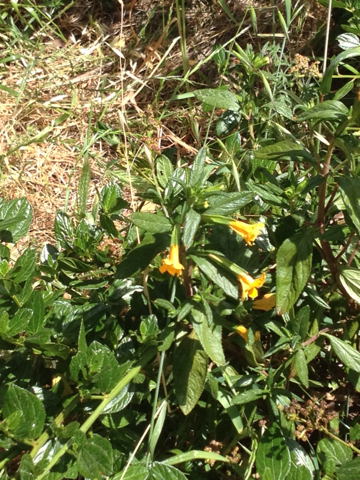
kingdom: Plantae
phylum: Tracheophyta
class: Magnoliopsida
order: Lamiales
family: Phrymaceae
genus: Diplacus
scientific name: Diplacus aurantiacus
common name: Bush monkey-flower
